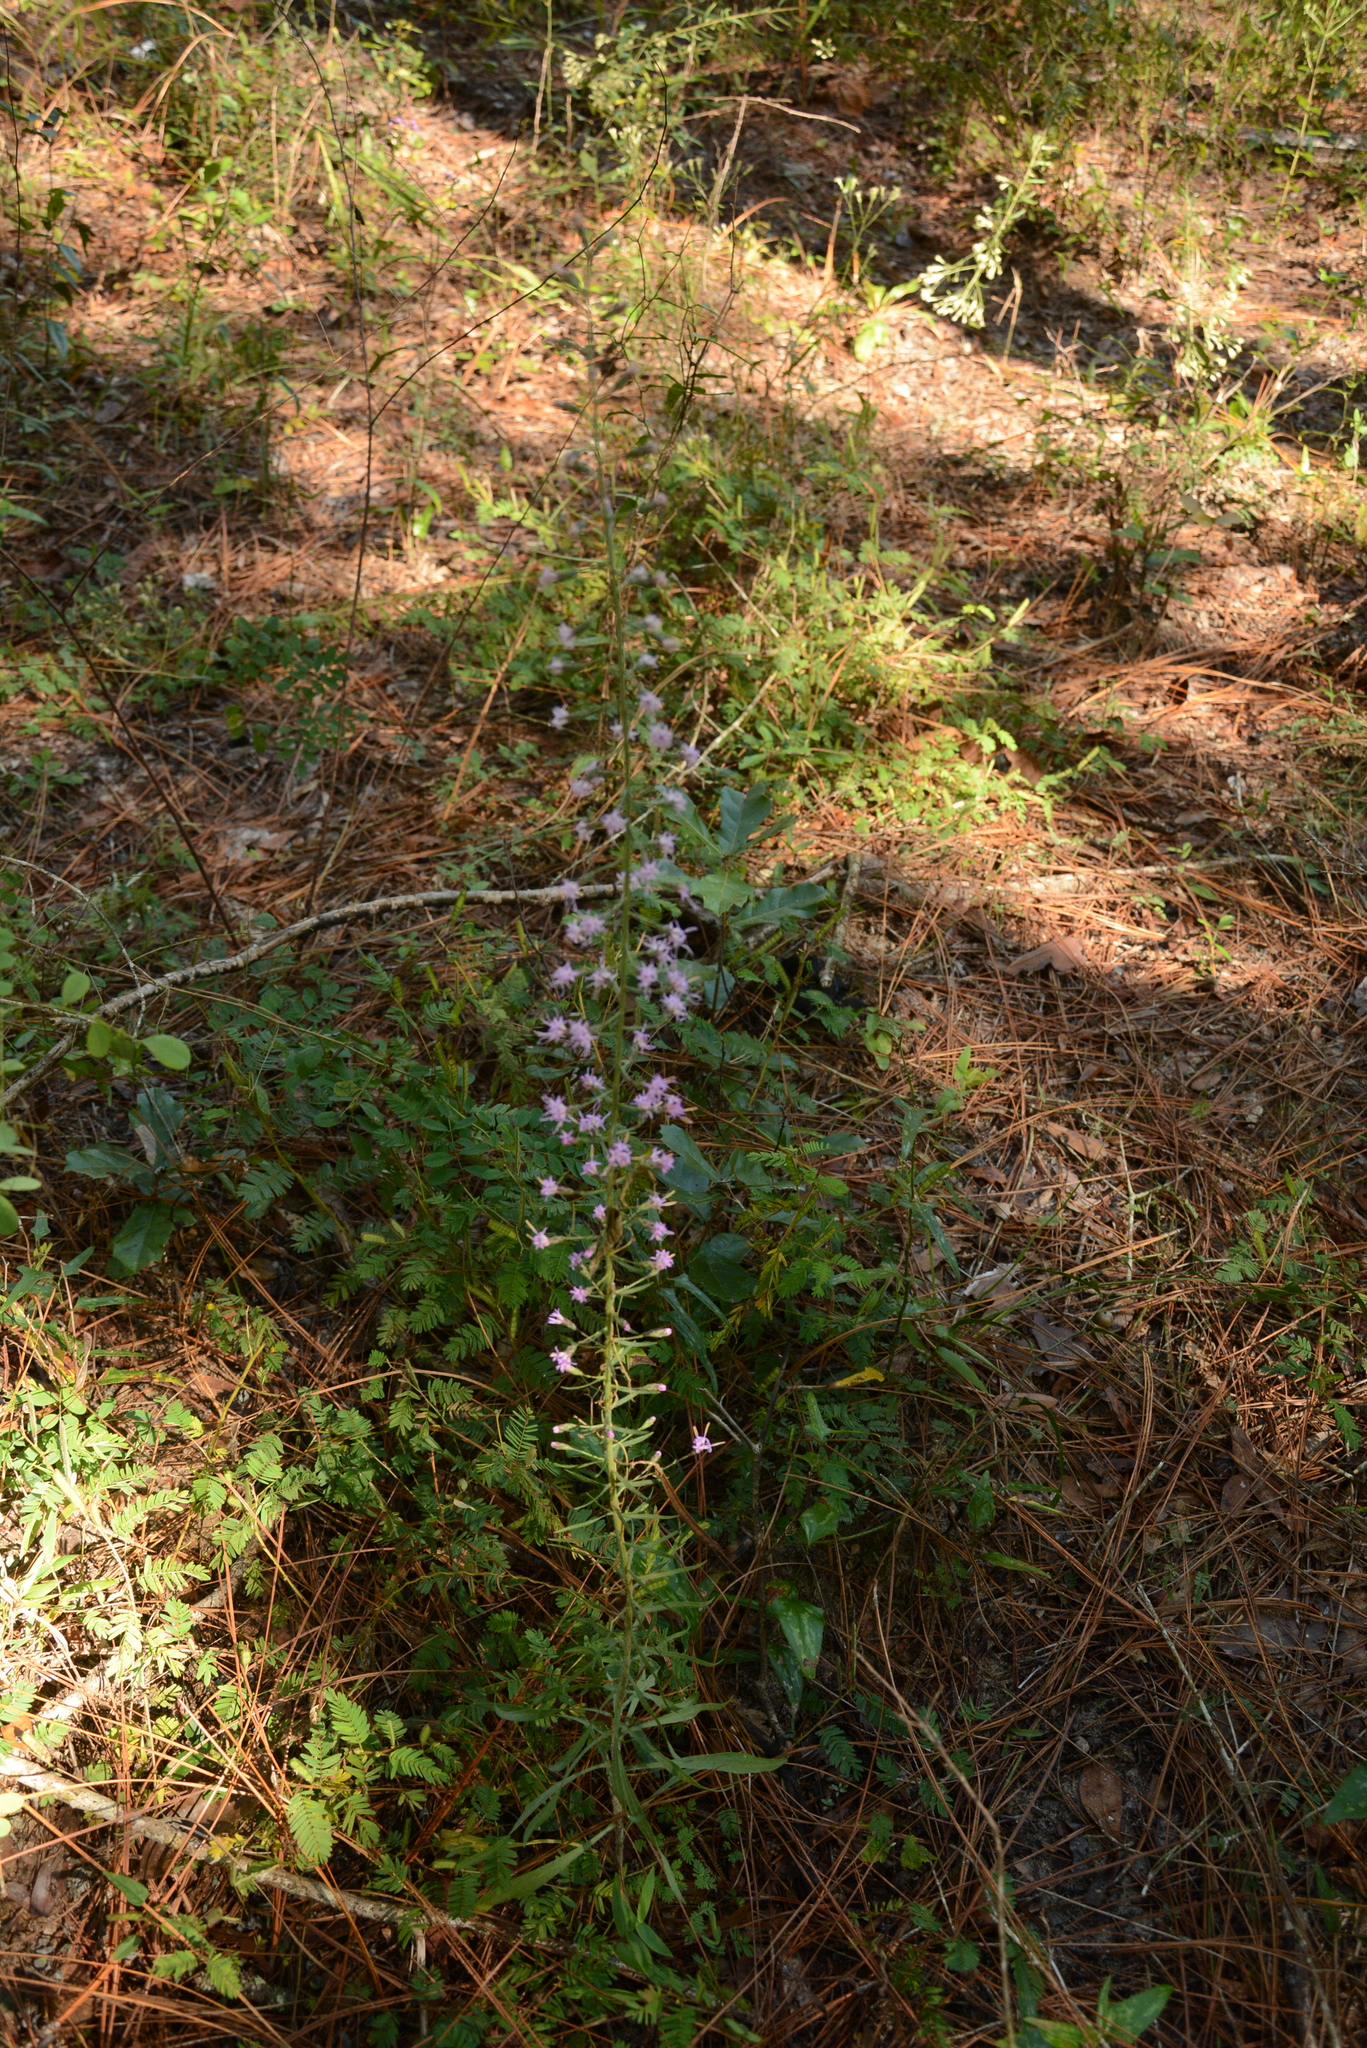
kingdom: Plantae
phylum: Tracheophyta
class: Magnoliopsida
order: Asterales
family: Asteraceae
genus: Liatris
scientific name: Liatris gracilis
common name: Slender gayfeather
